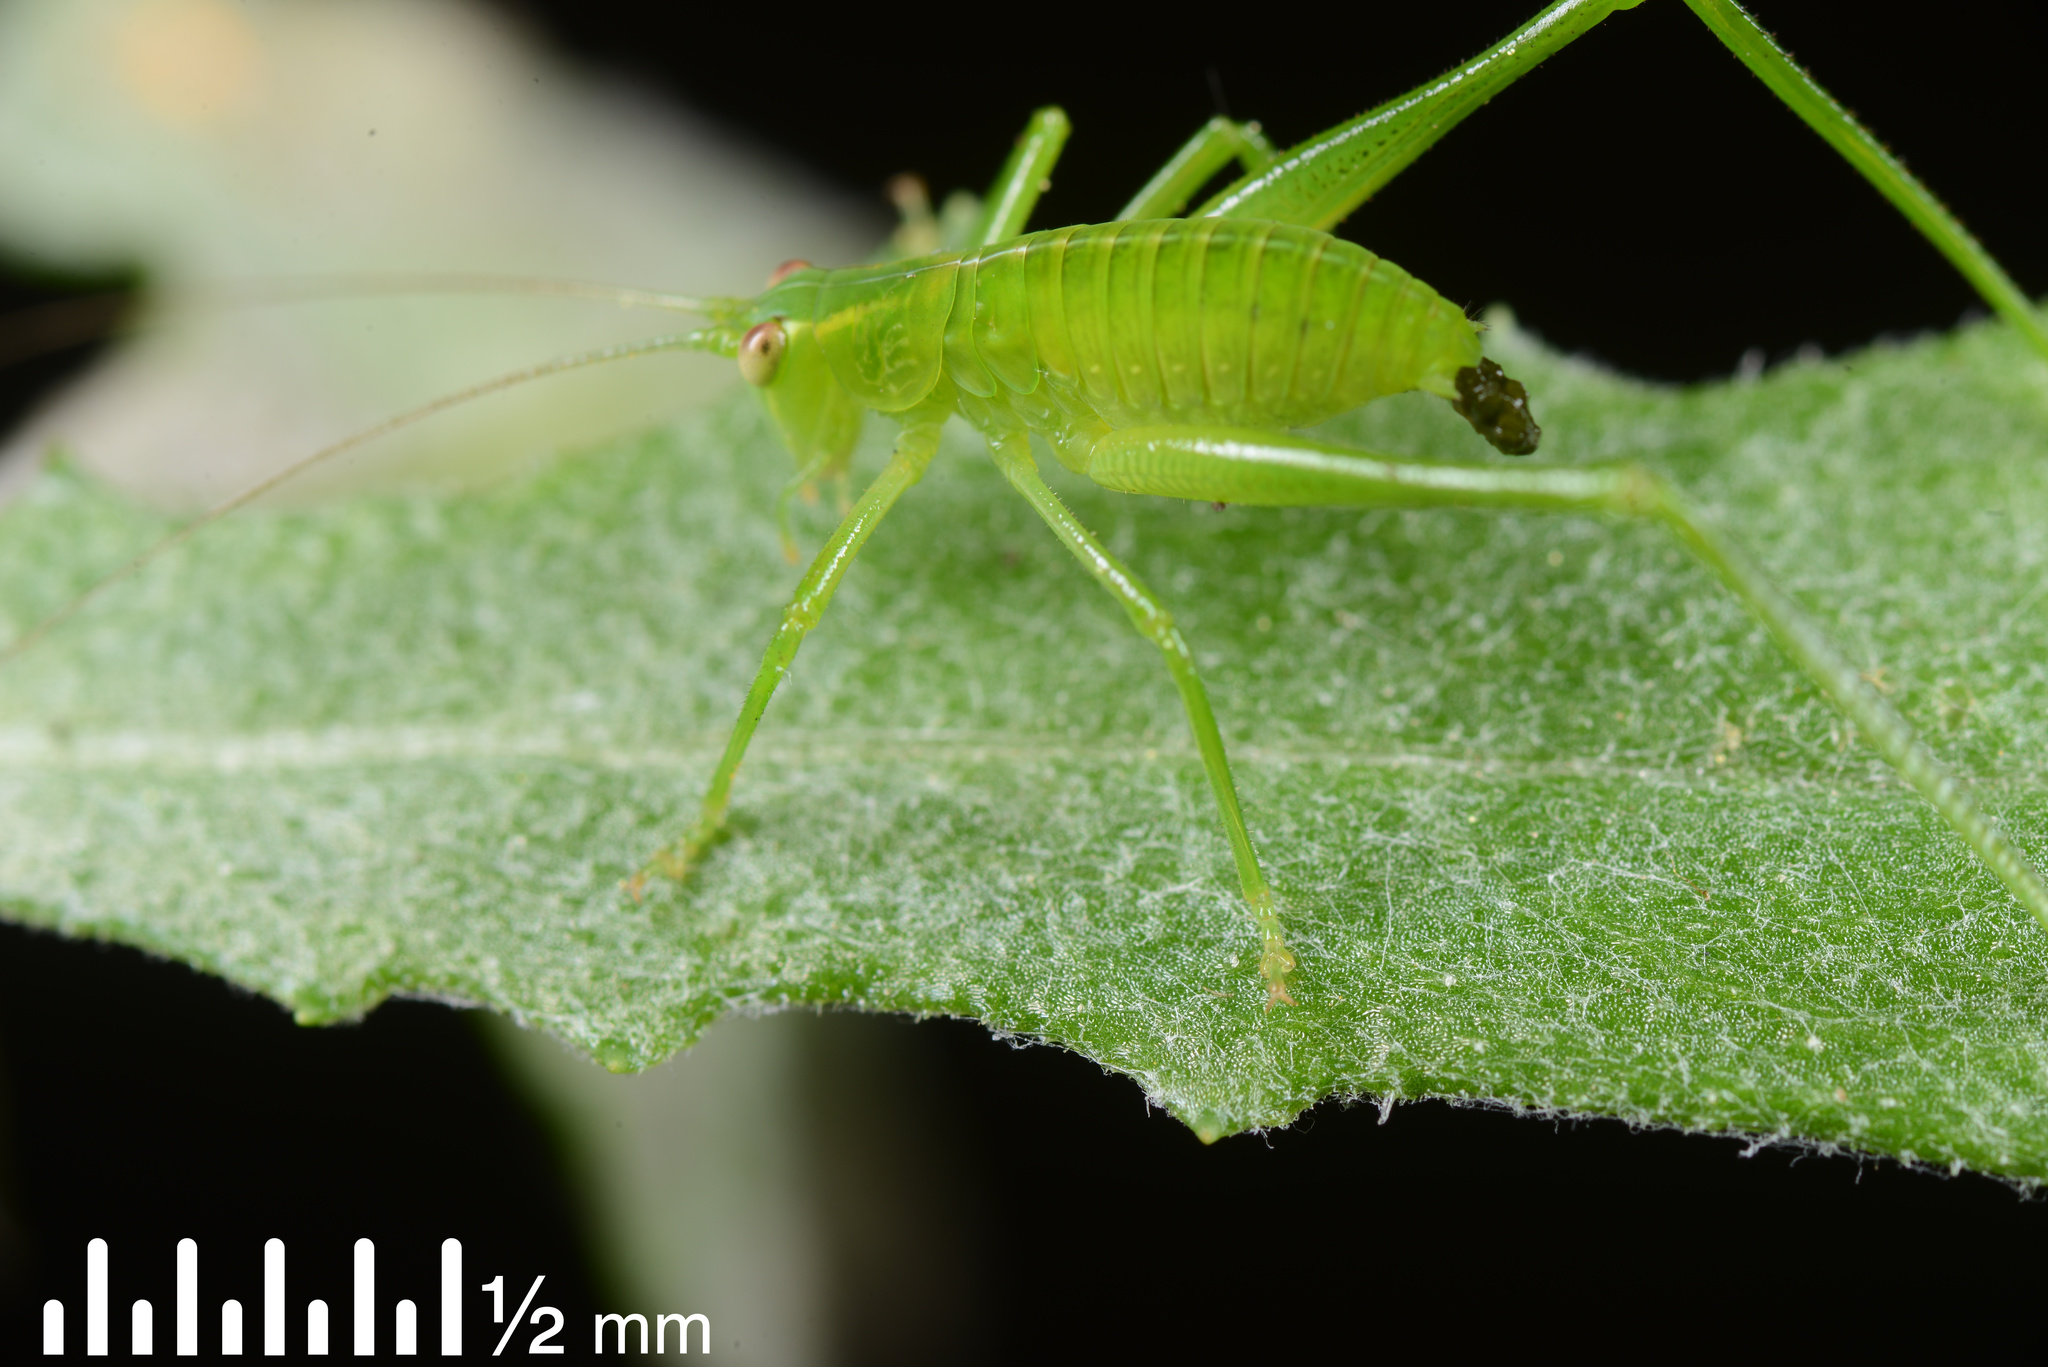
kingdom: Animalia
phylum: Arthropoda
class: Insecta
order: Orthoptera
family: Tettigoniidae
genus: Caedicia
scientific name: Caedicia simplex
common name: Common garden katydid
